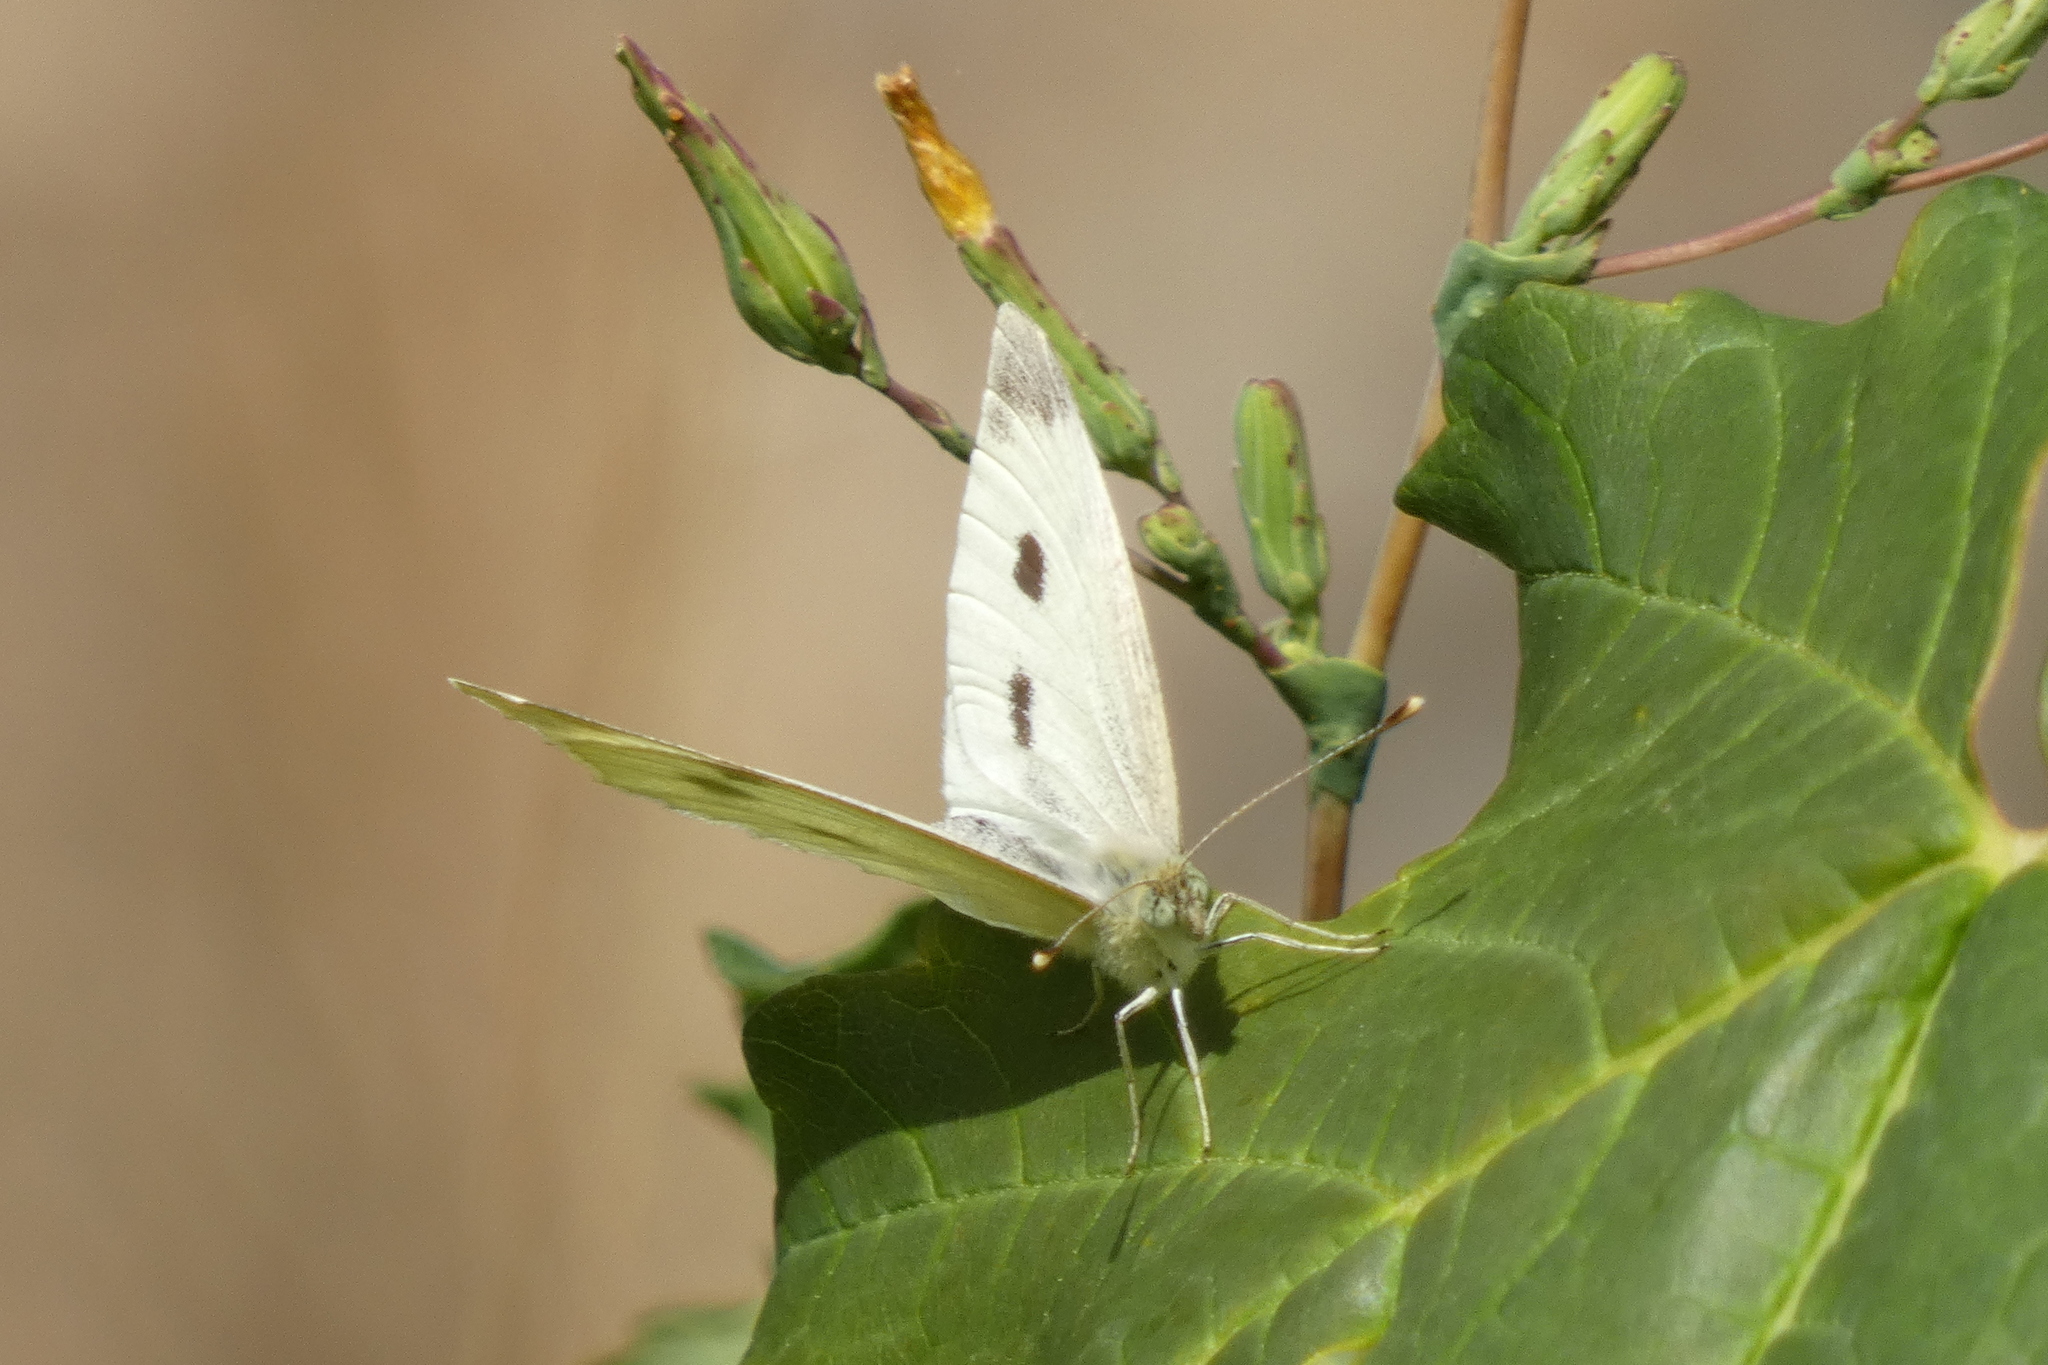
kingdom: Animalia
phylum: Arthropoda
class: Insecta
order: Lepidoptera
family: Pieridae
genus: Pieris
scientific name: Pieris rapae
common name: Small white
